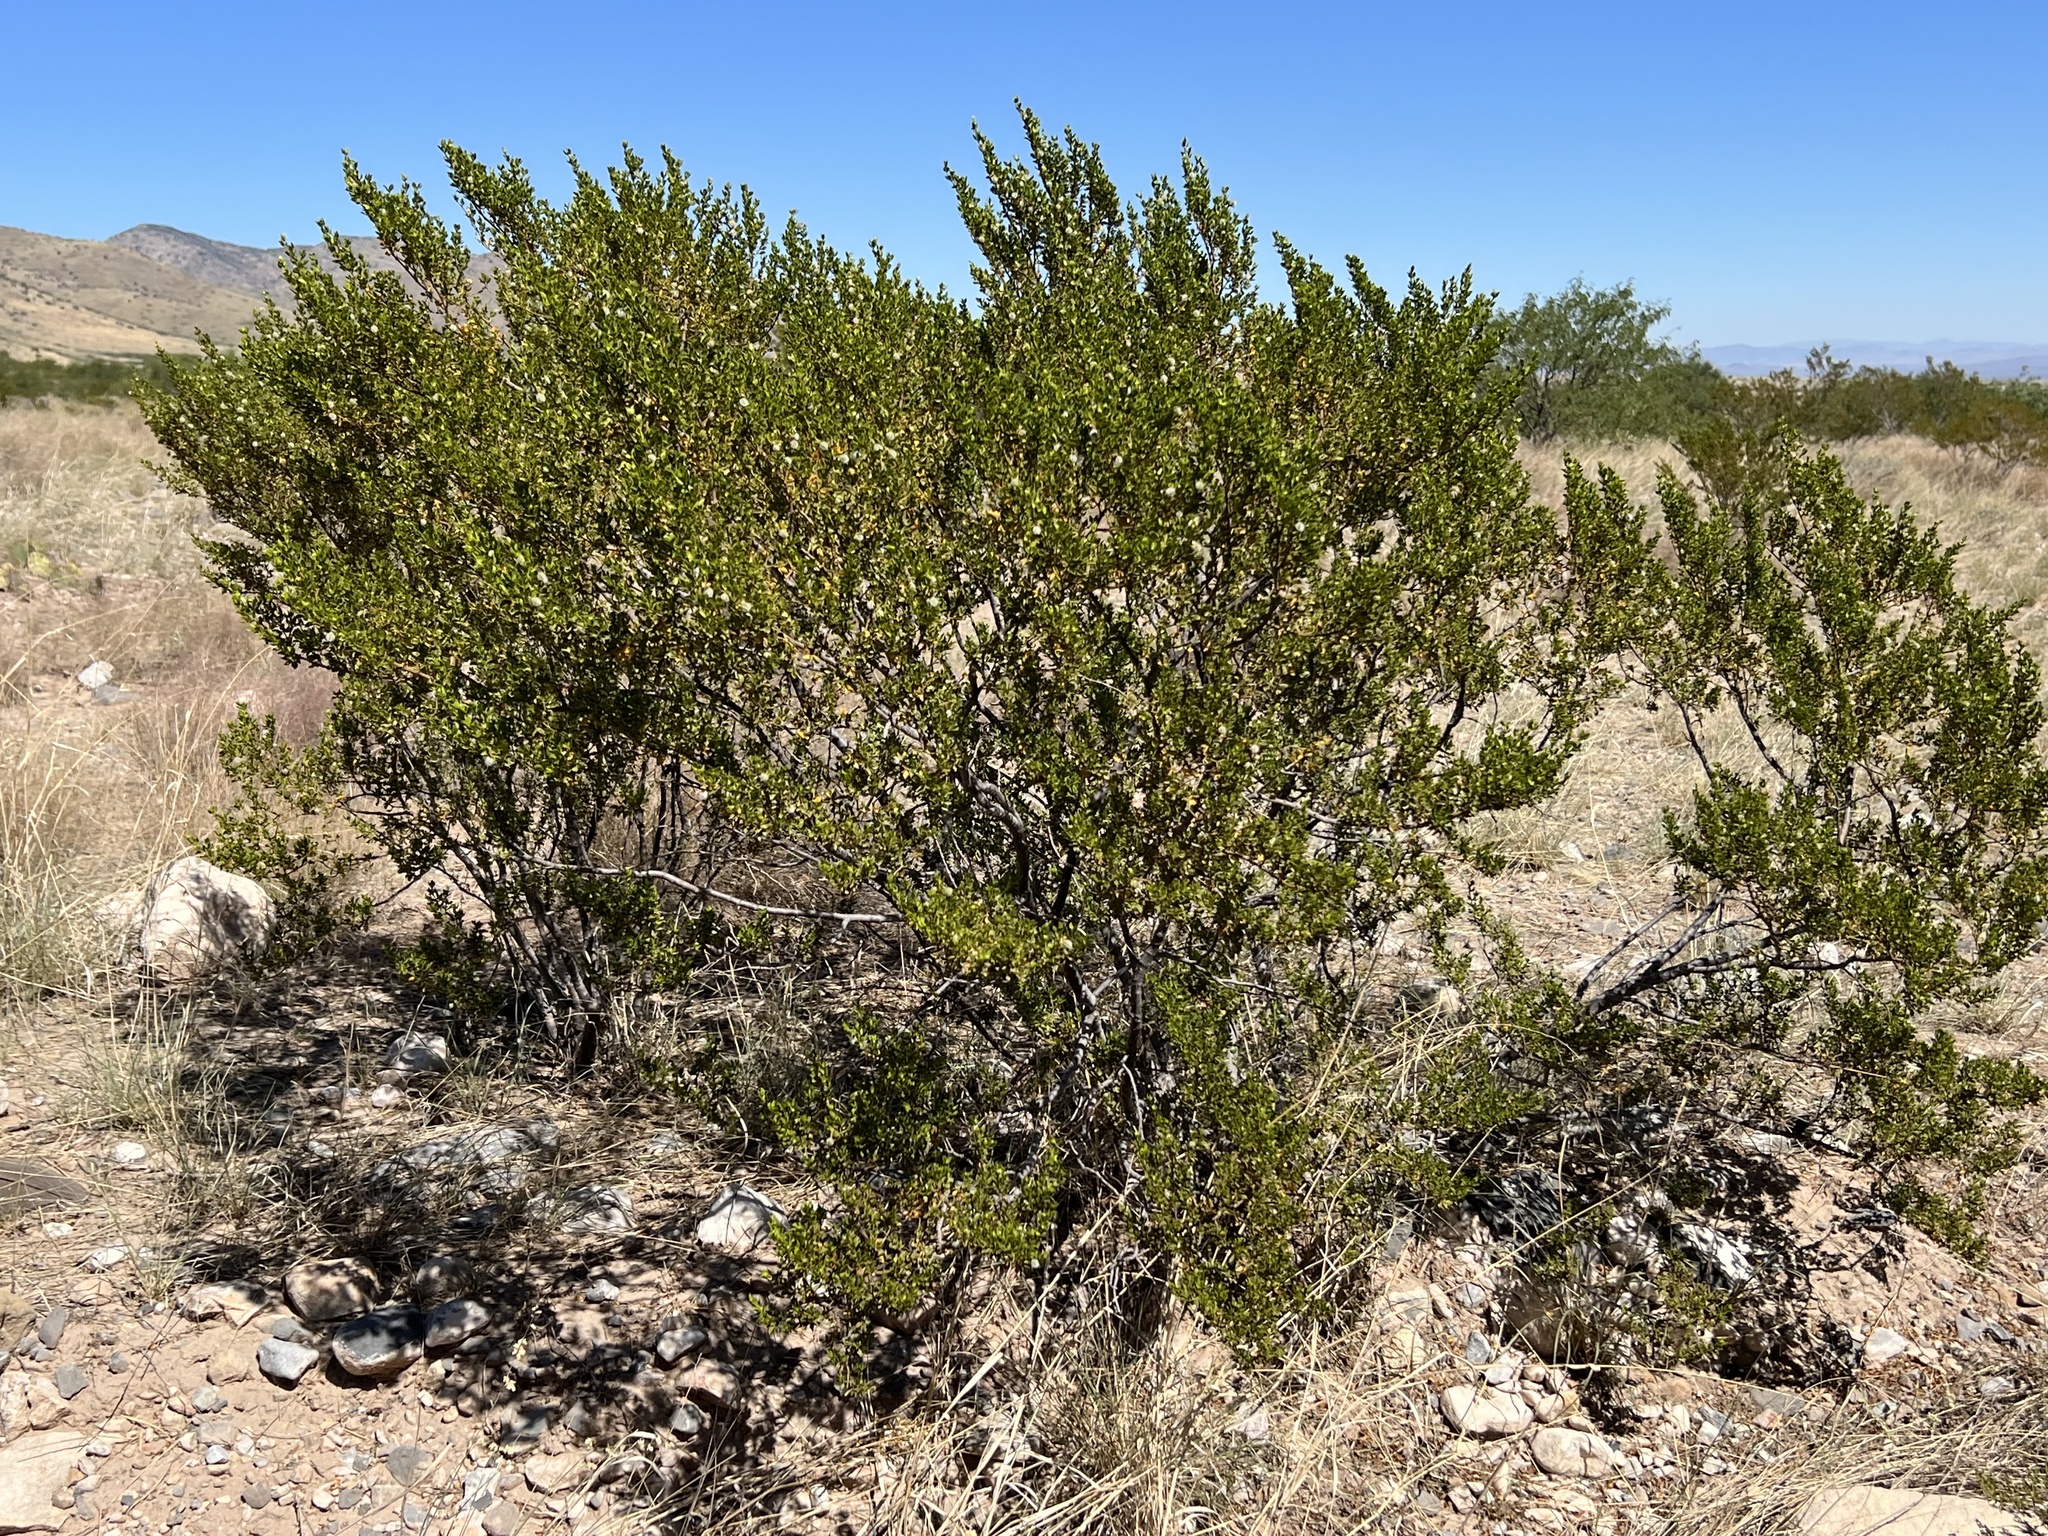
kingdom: Plantae
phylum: Tracheophyta
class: Magnoliopsida
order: Zygophyllales
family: Zygophyllaceae
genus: Larrea
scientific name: Larrea tridentata
